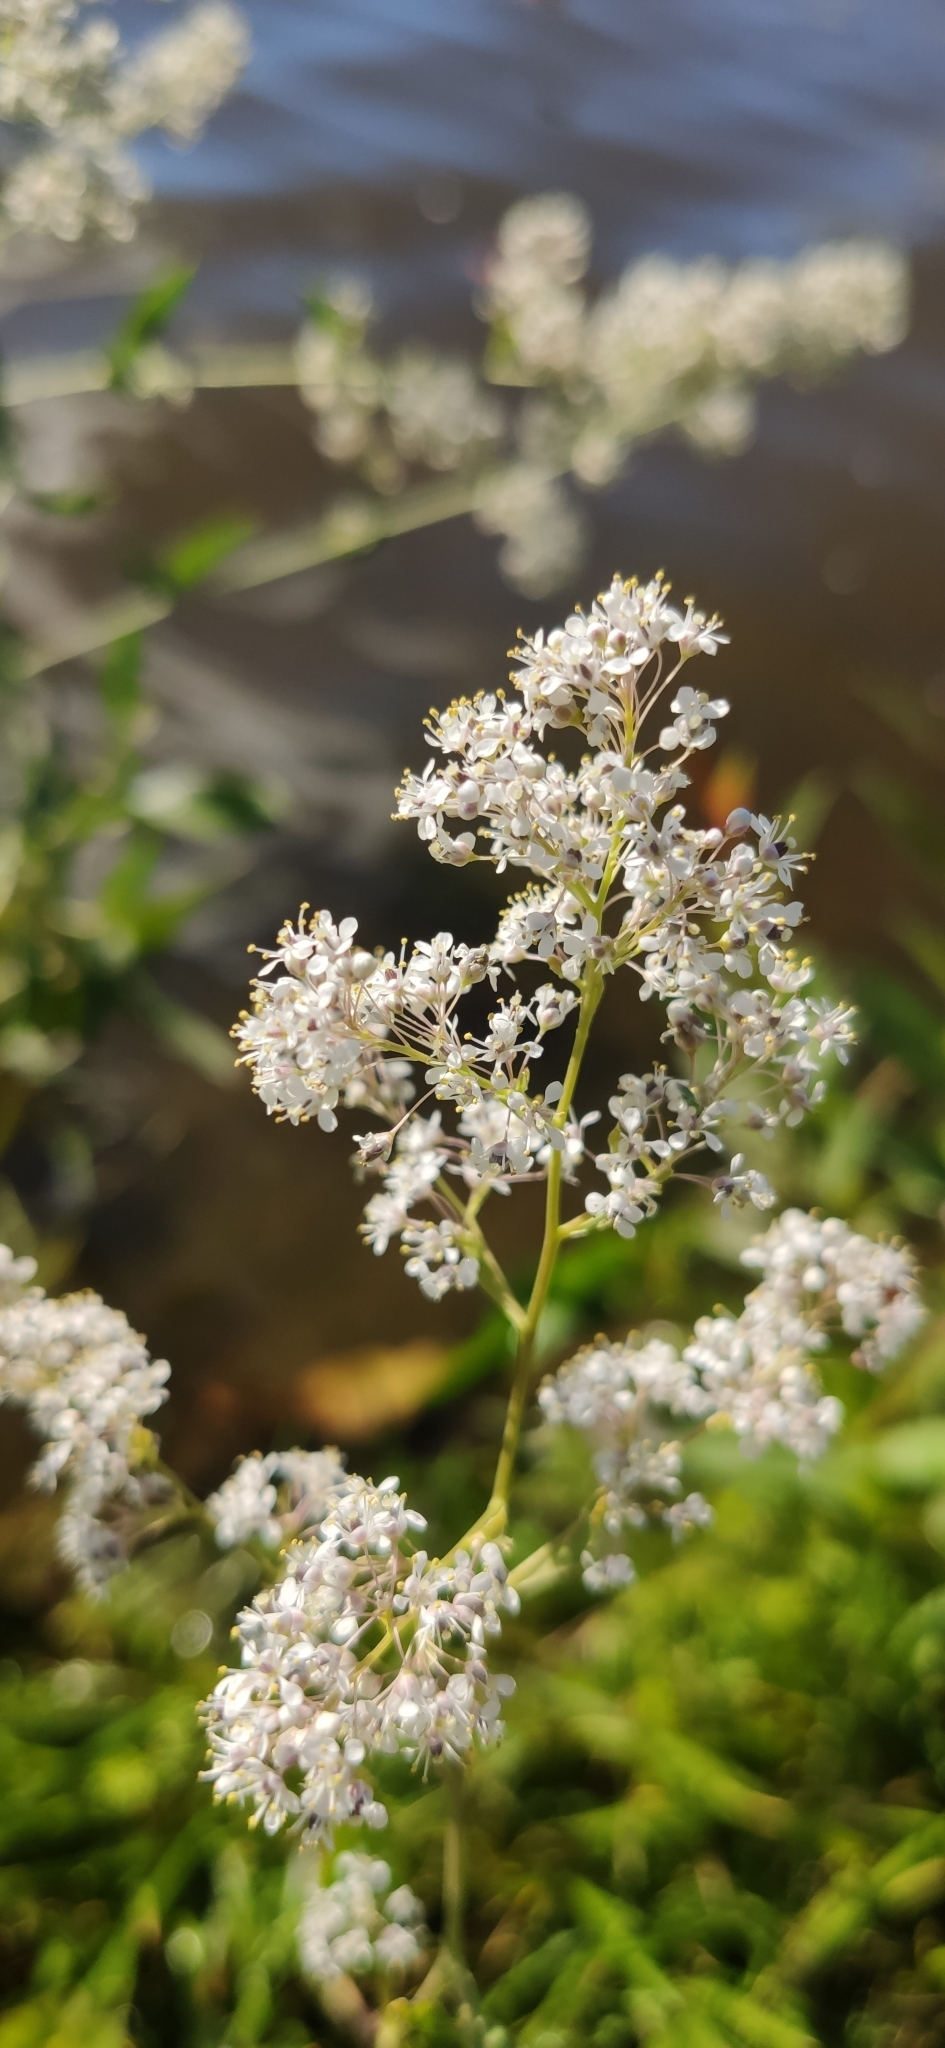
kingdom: Plantae
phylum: Tracheophyta
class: Magnoliopsida
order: Brassicales
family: Brassicaceae
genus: Lepidium
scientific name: Lepidium latifolium
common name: Dittander
